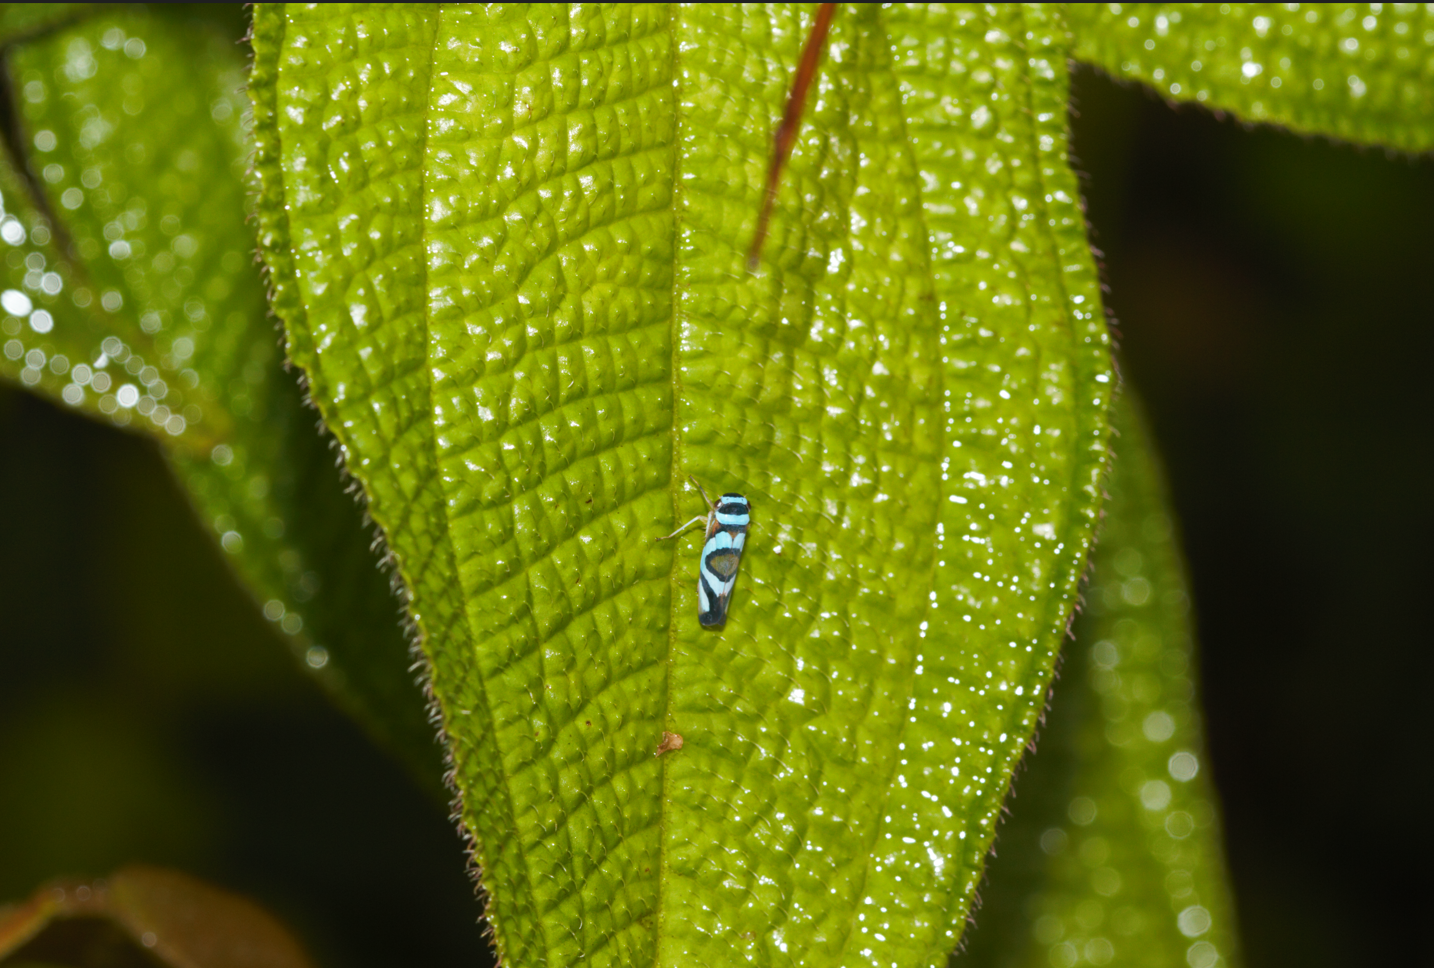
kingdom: Animalia
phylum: Arthropoda
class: Insecta
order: Hemiptera
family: Cicadellidae
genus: Macugonalia
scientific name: Macugonalia moesta
